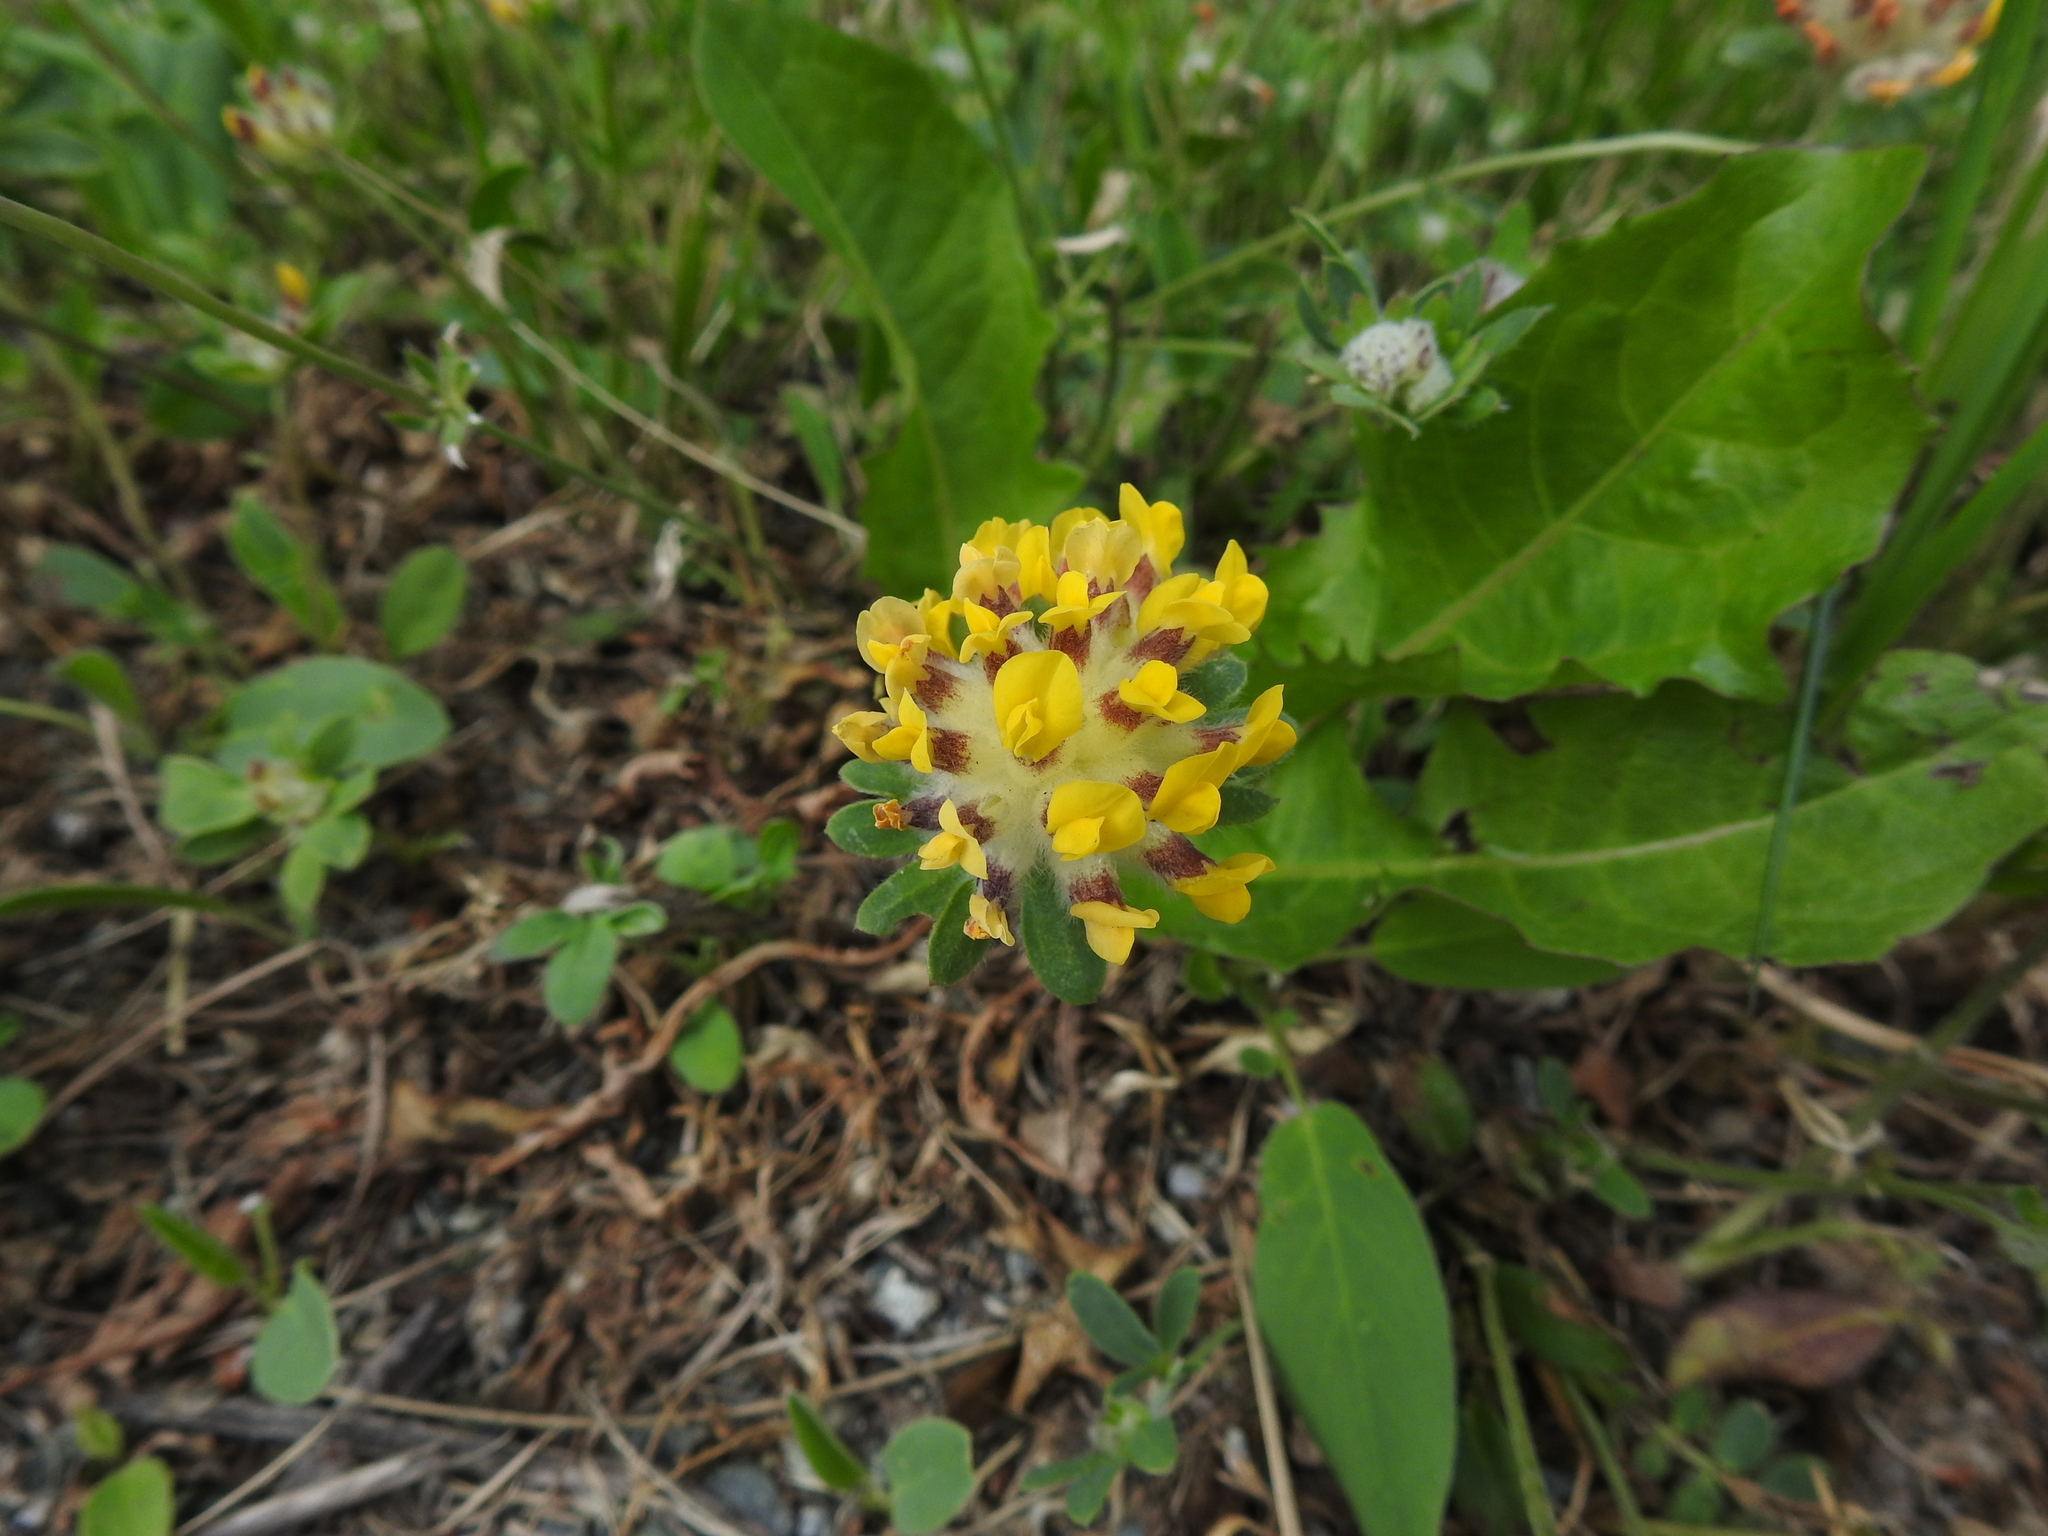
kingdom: Plantae
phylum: Tracheophyta
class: Magnoliopsida
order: Fabales
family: Fabaceae
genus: Anthyllis
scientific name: Anthyllis vulneraria
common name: Kidney vetch
